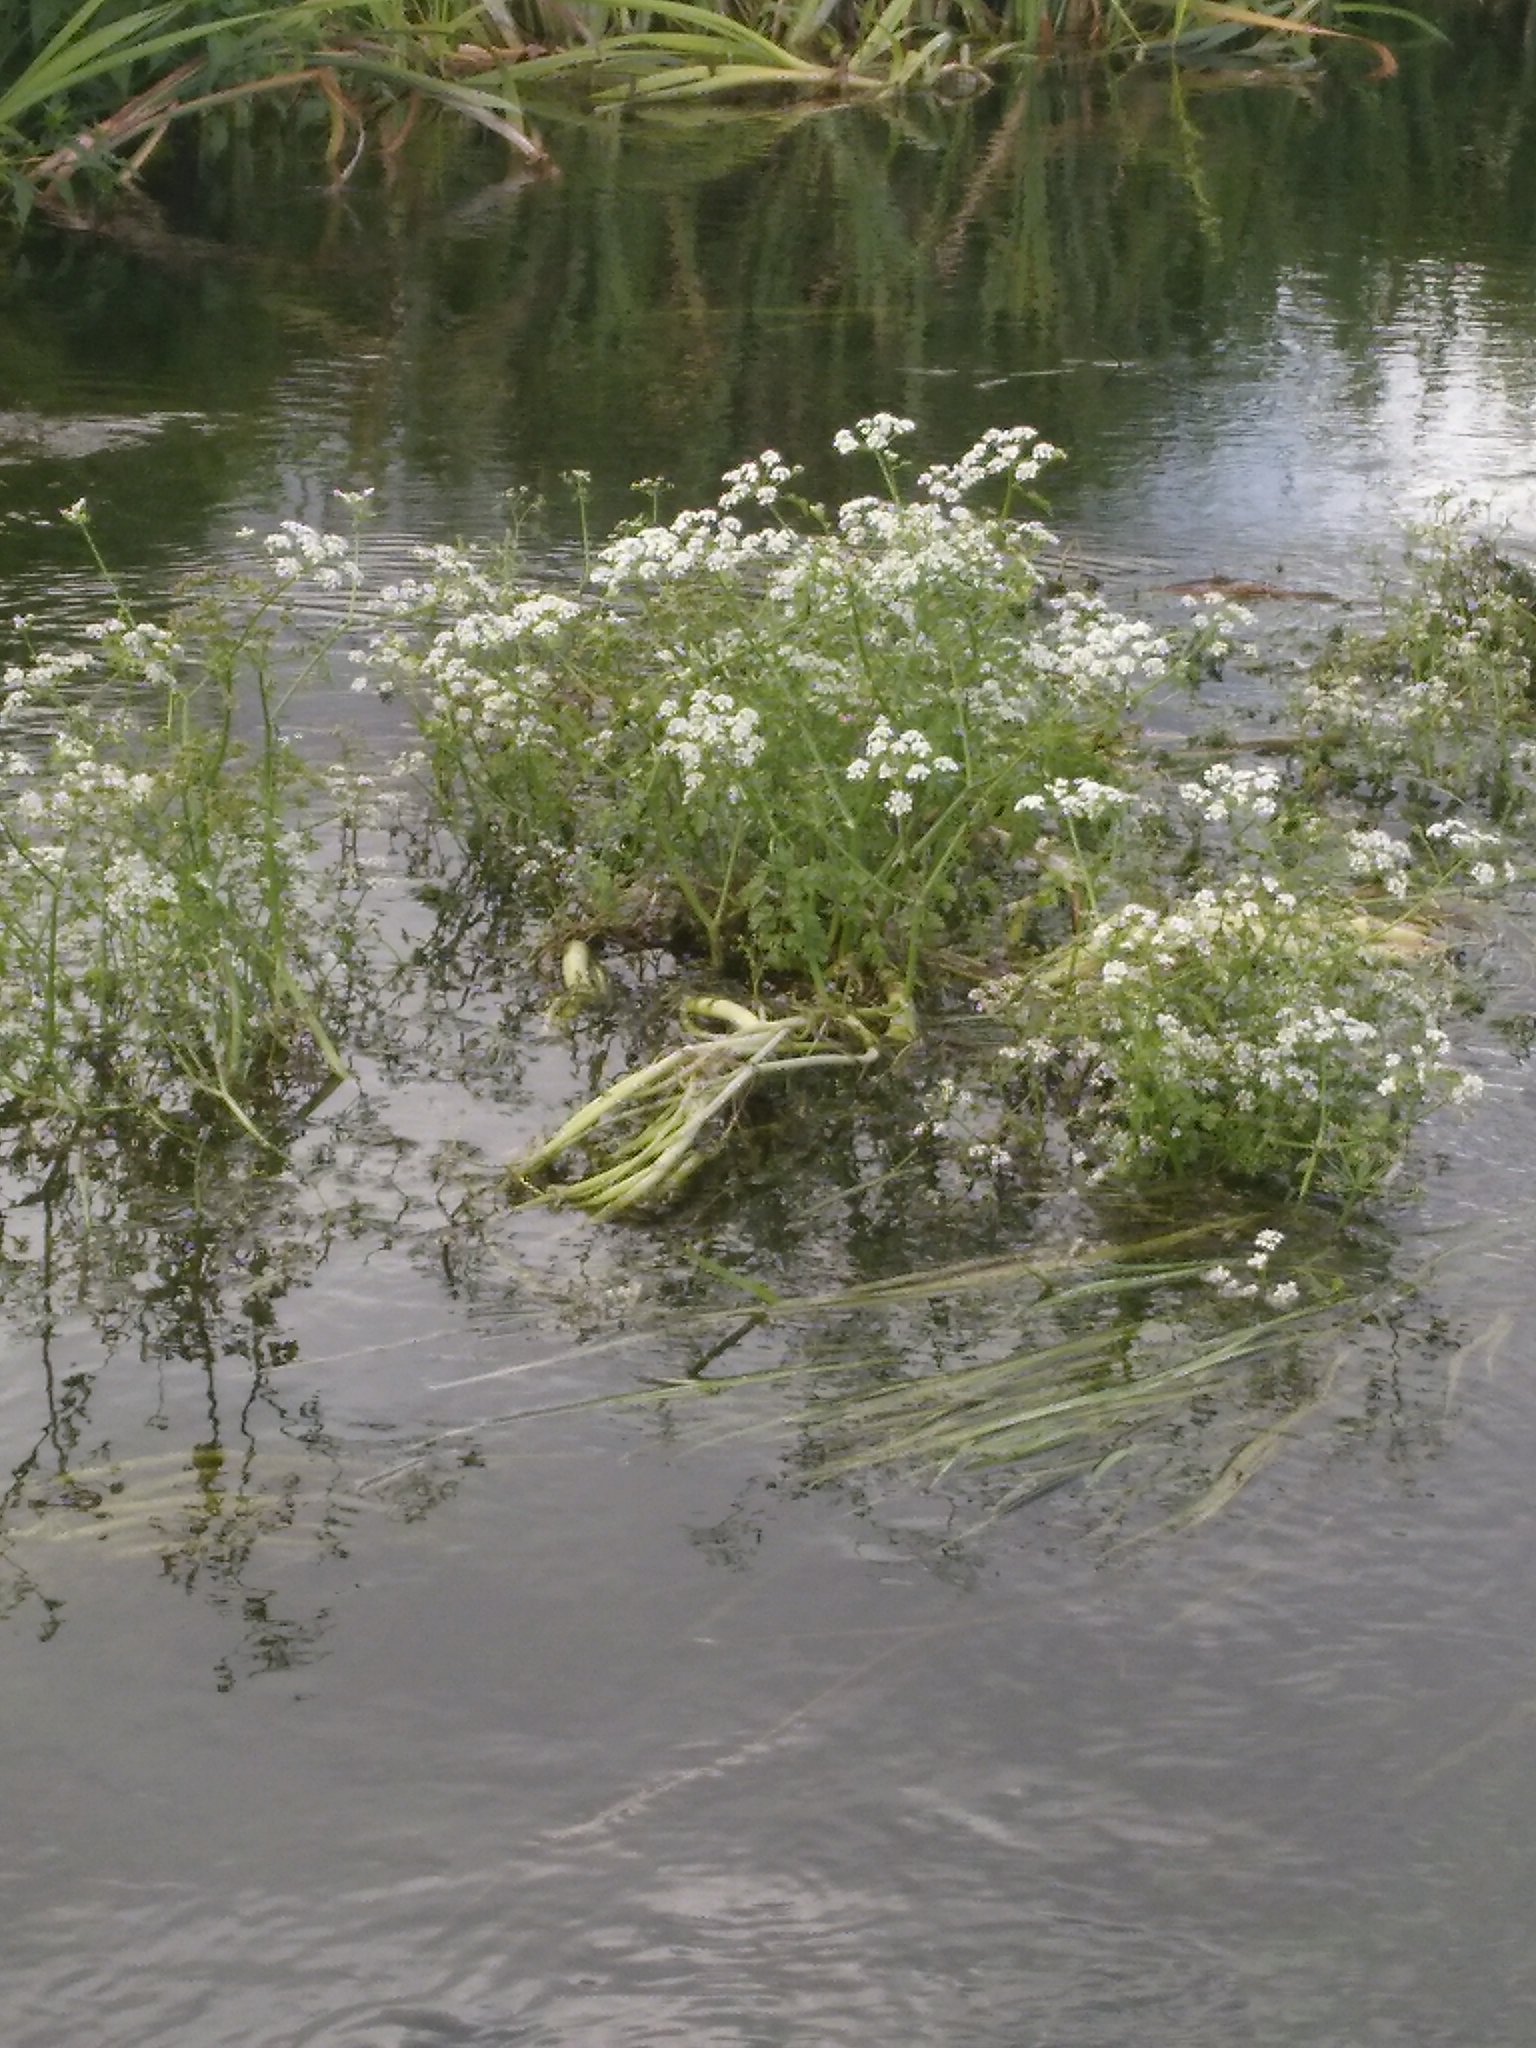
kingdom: Plantae
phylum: Tracheophyta
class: Magnoliopsida
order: Apiales
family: Apiaceae
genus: Oenanthe
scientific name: Oenanthe fluviatilis
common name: River water-dropwort
